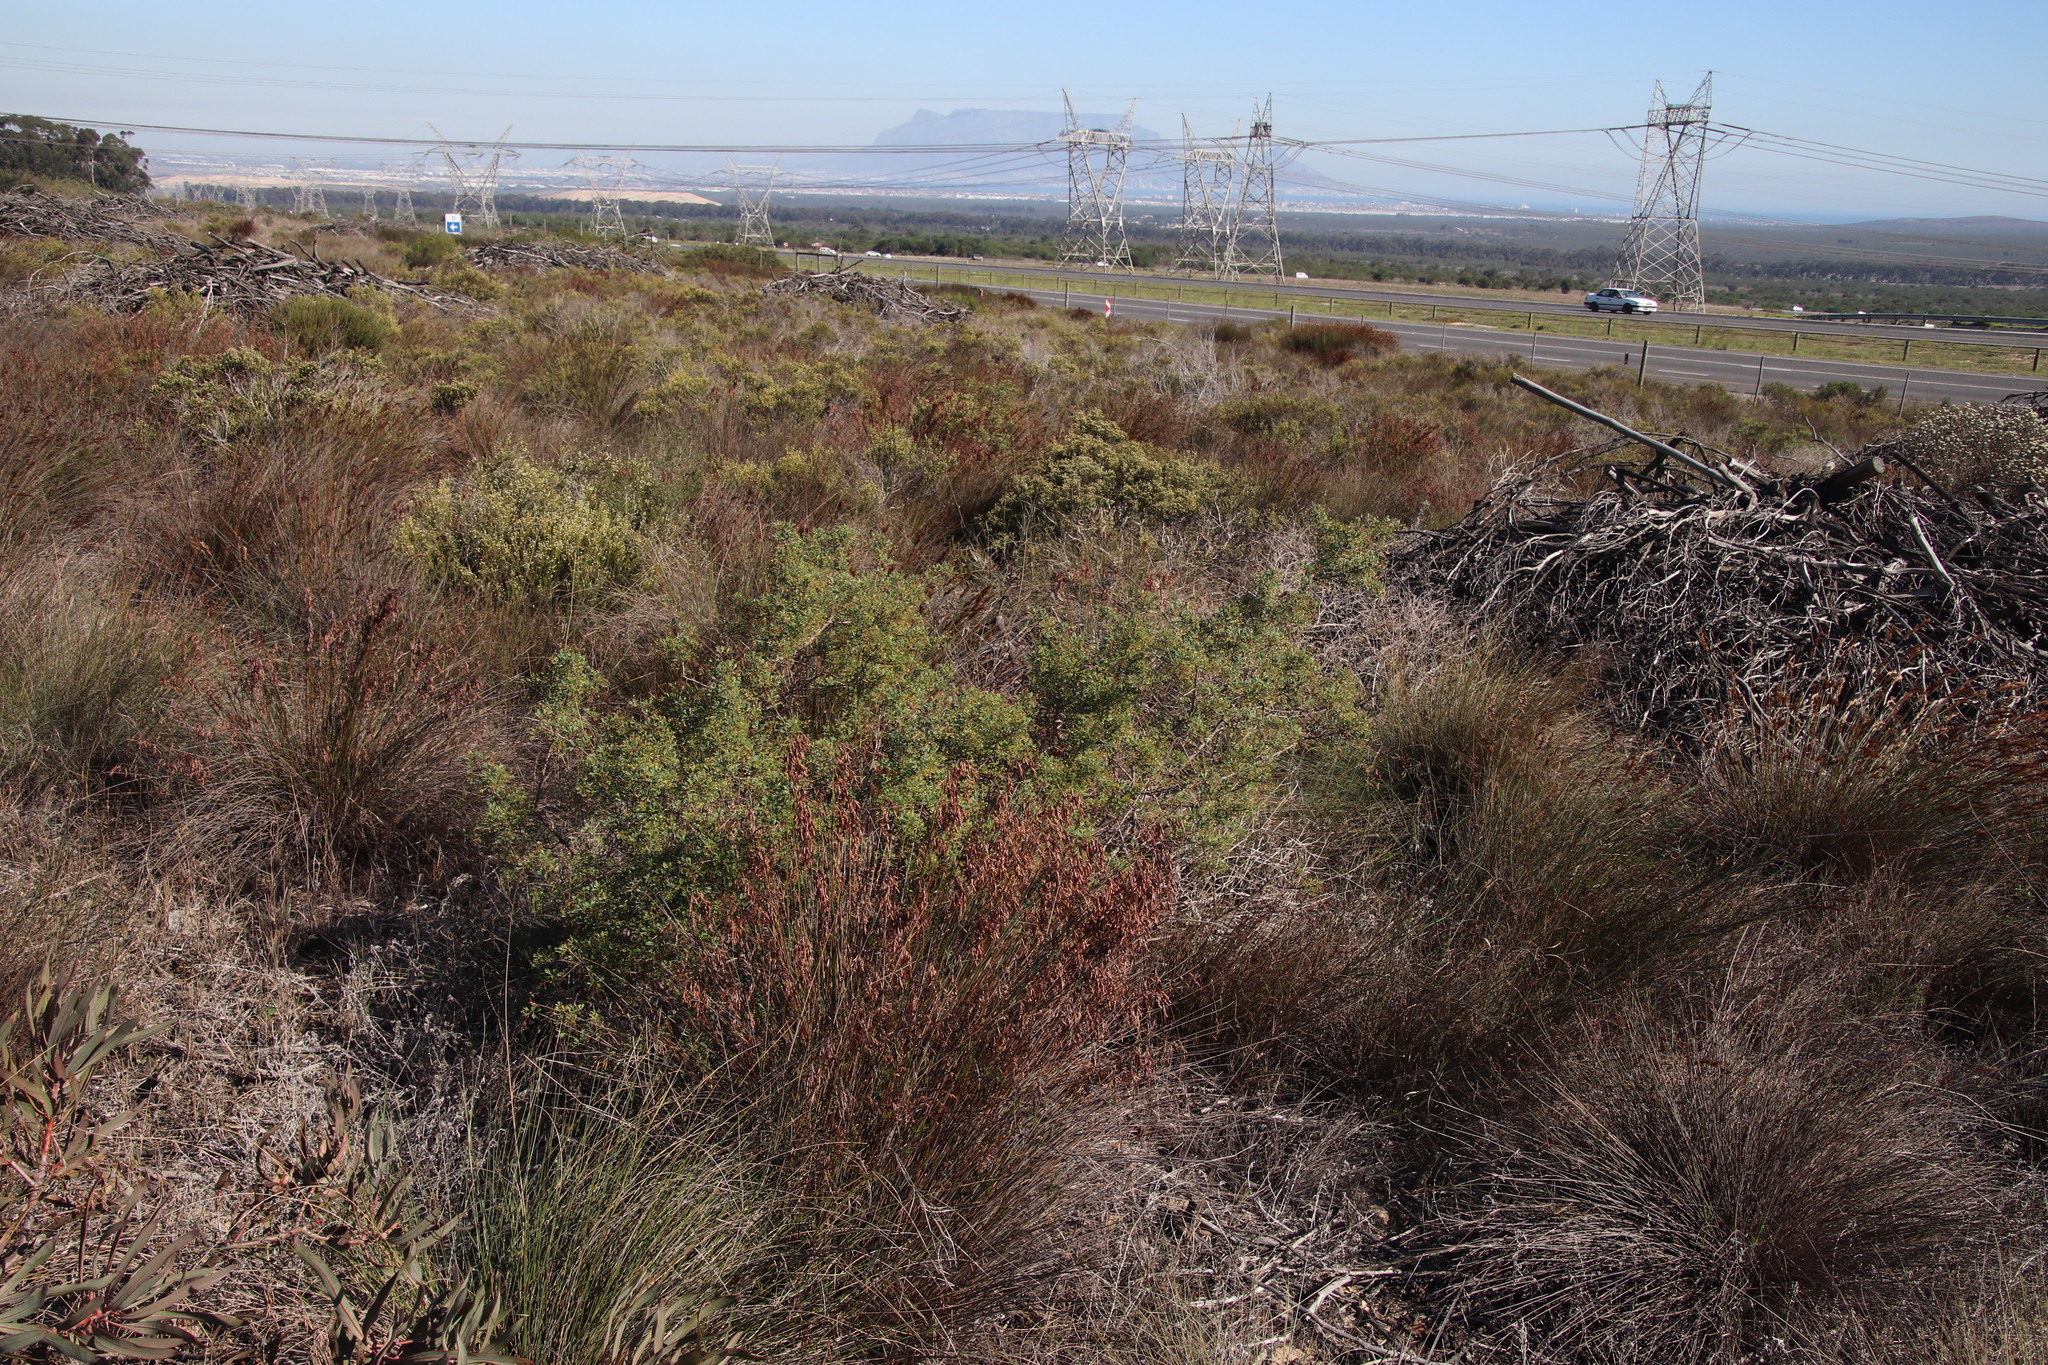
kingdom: Plantae
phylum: Tracheophyta
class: Magnoliopsida
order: Sapindales
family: Anacardiaceae
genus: Searsia
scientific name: Searsia dissecta
